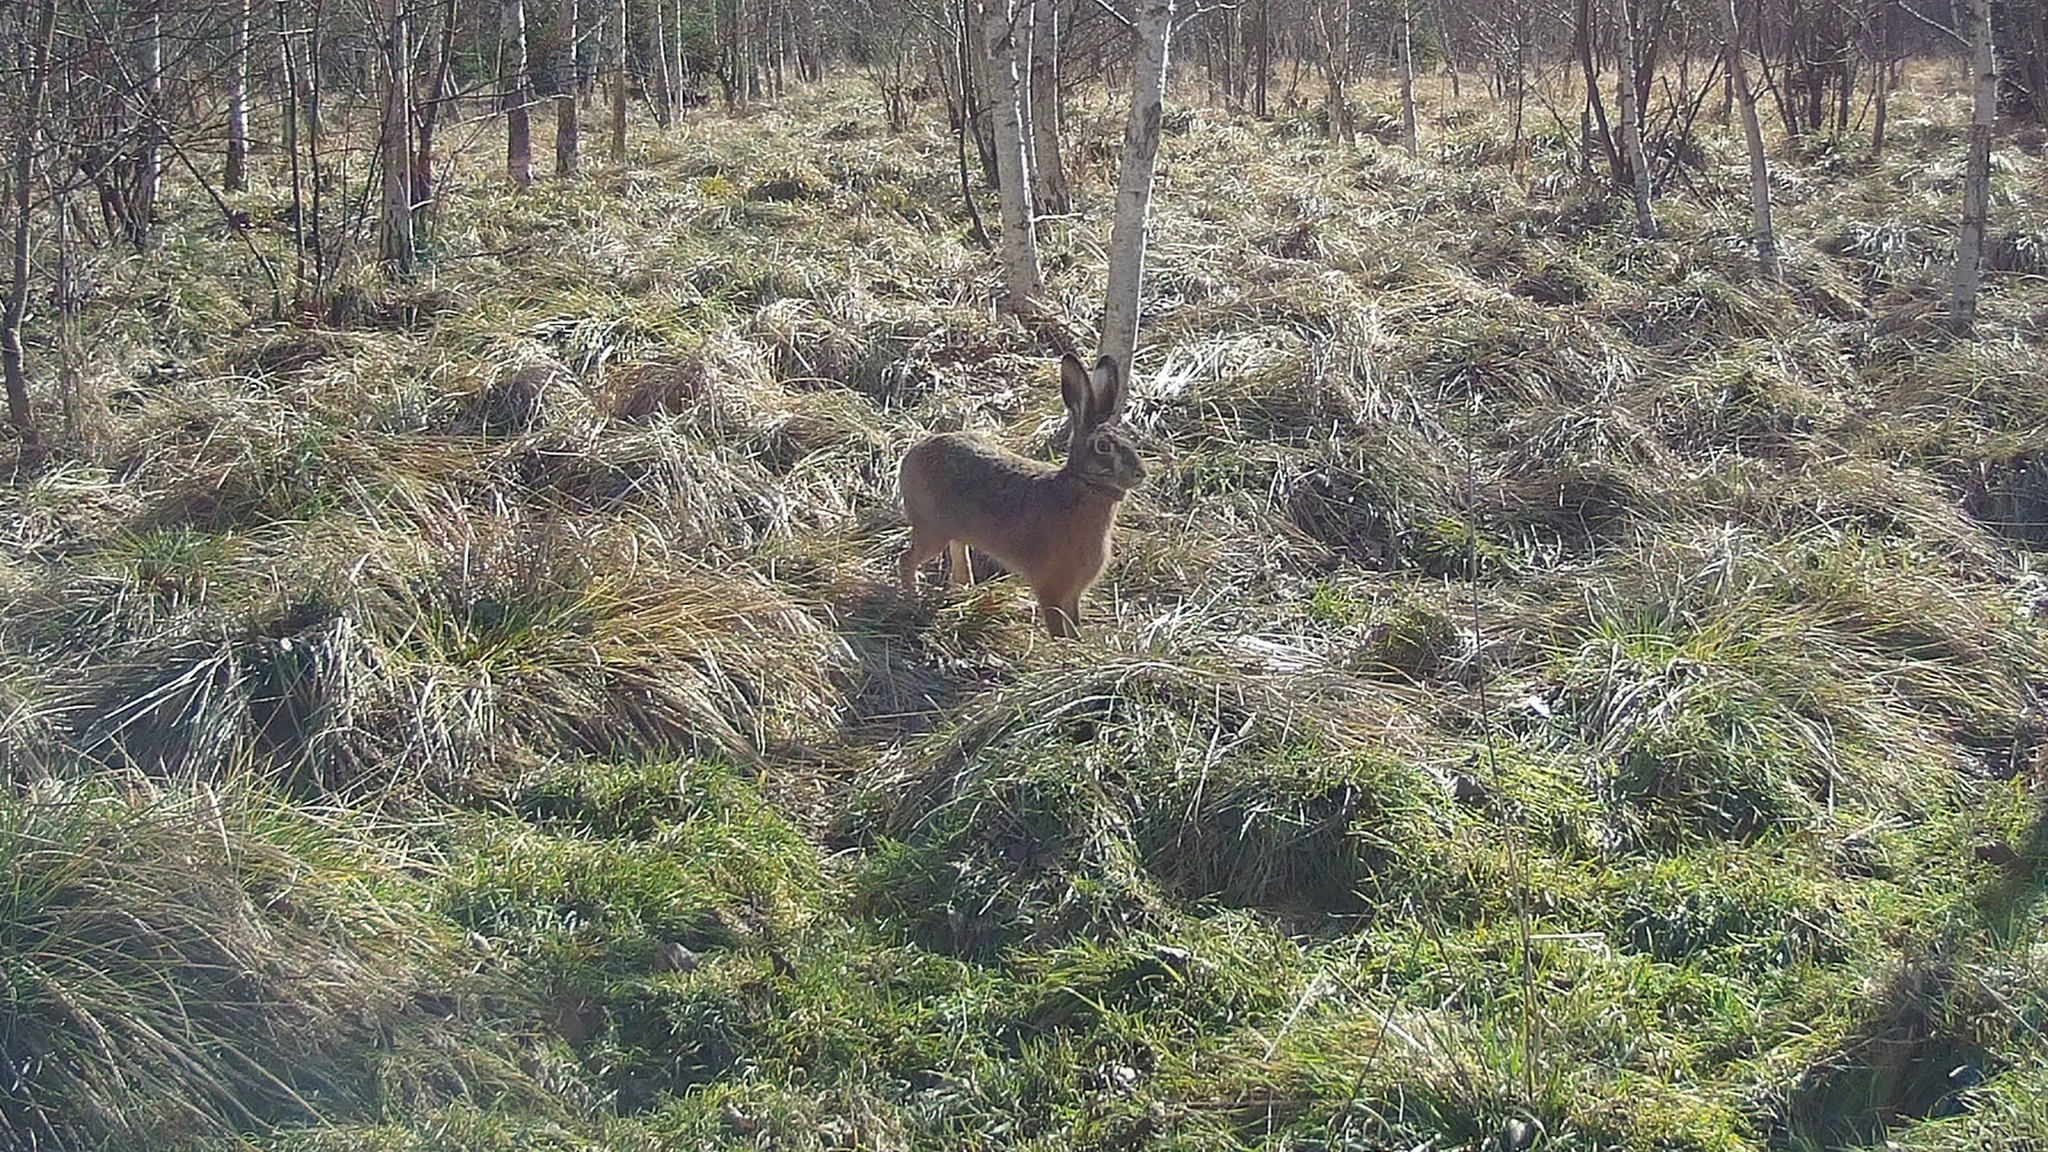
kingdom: Animalia
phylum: Chordata
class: Mammalia
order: Lagomorpha
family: Leporidae
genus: Lepus
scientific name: Lepus europaeus
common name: European hare
